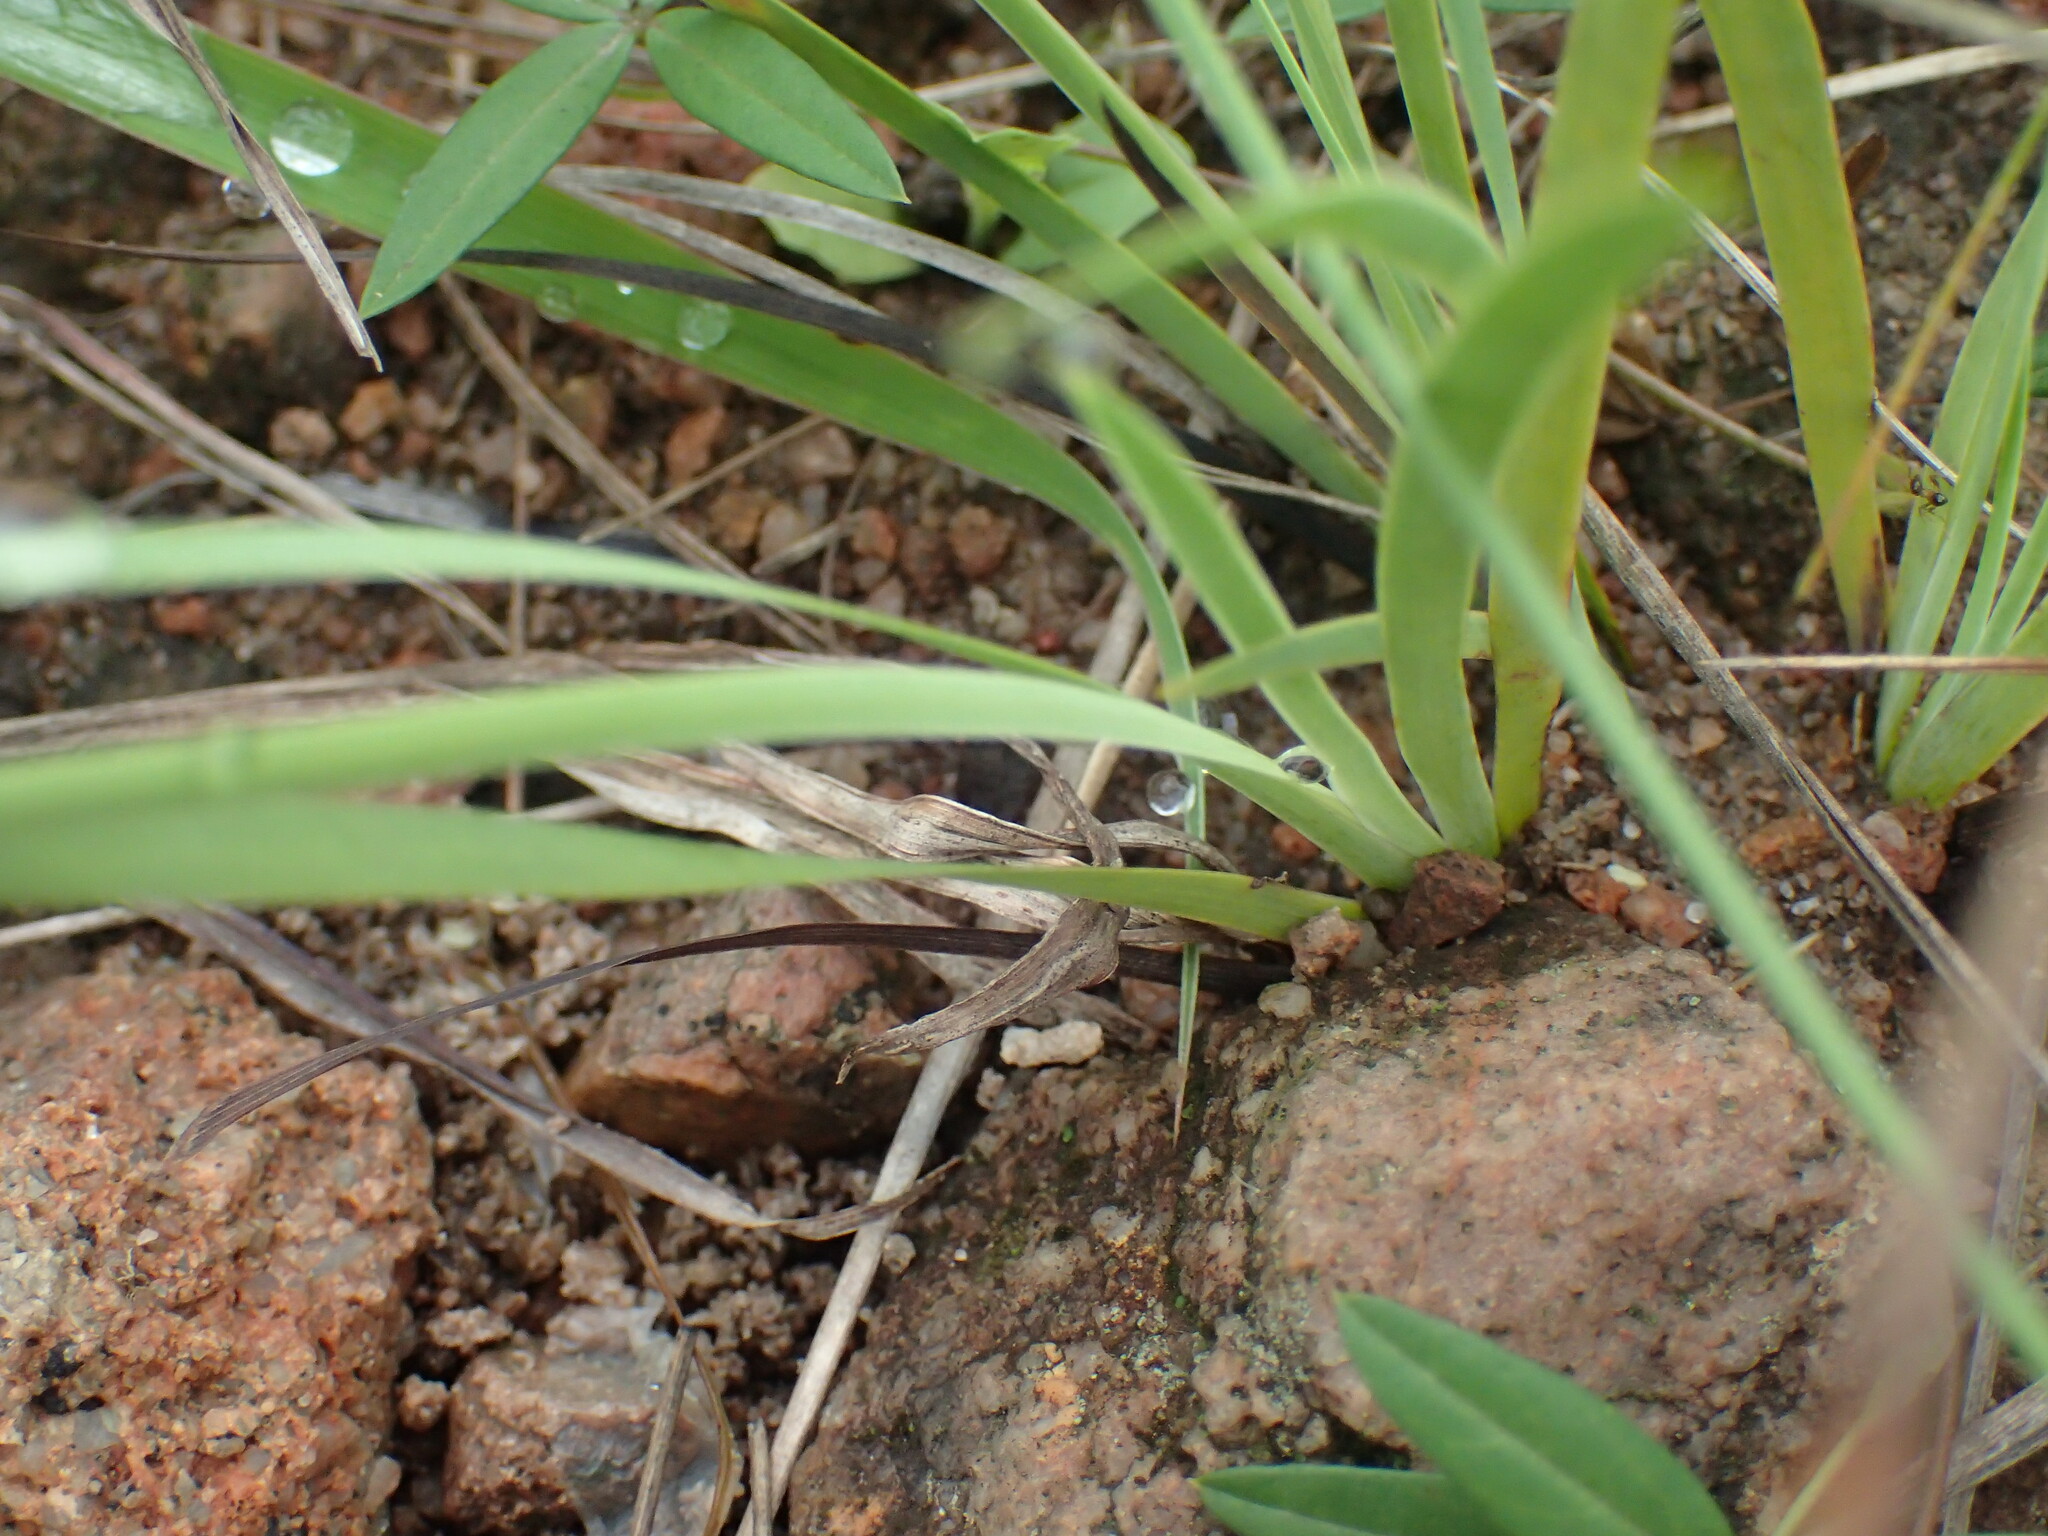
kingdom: Plantae
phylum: Tracheophyta
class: Liliopsida
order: Asparagales
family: Iridaceae
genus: Aristea
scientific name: Aristea abyssinica
